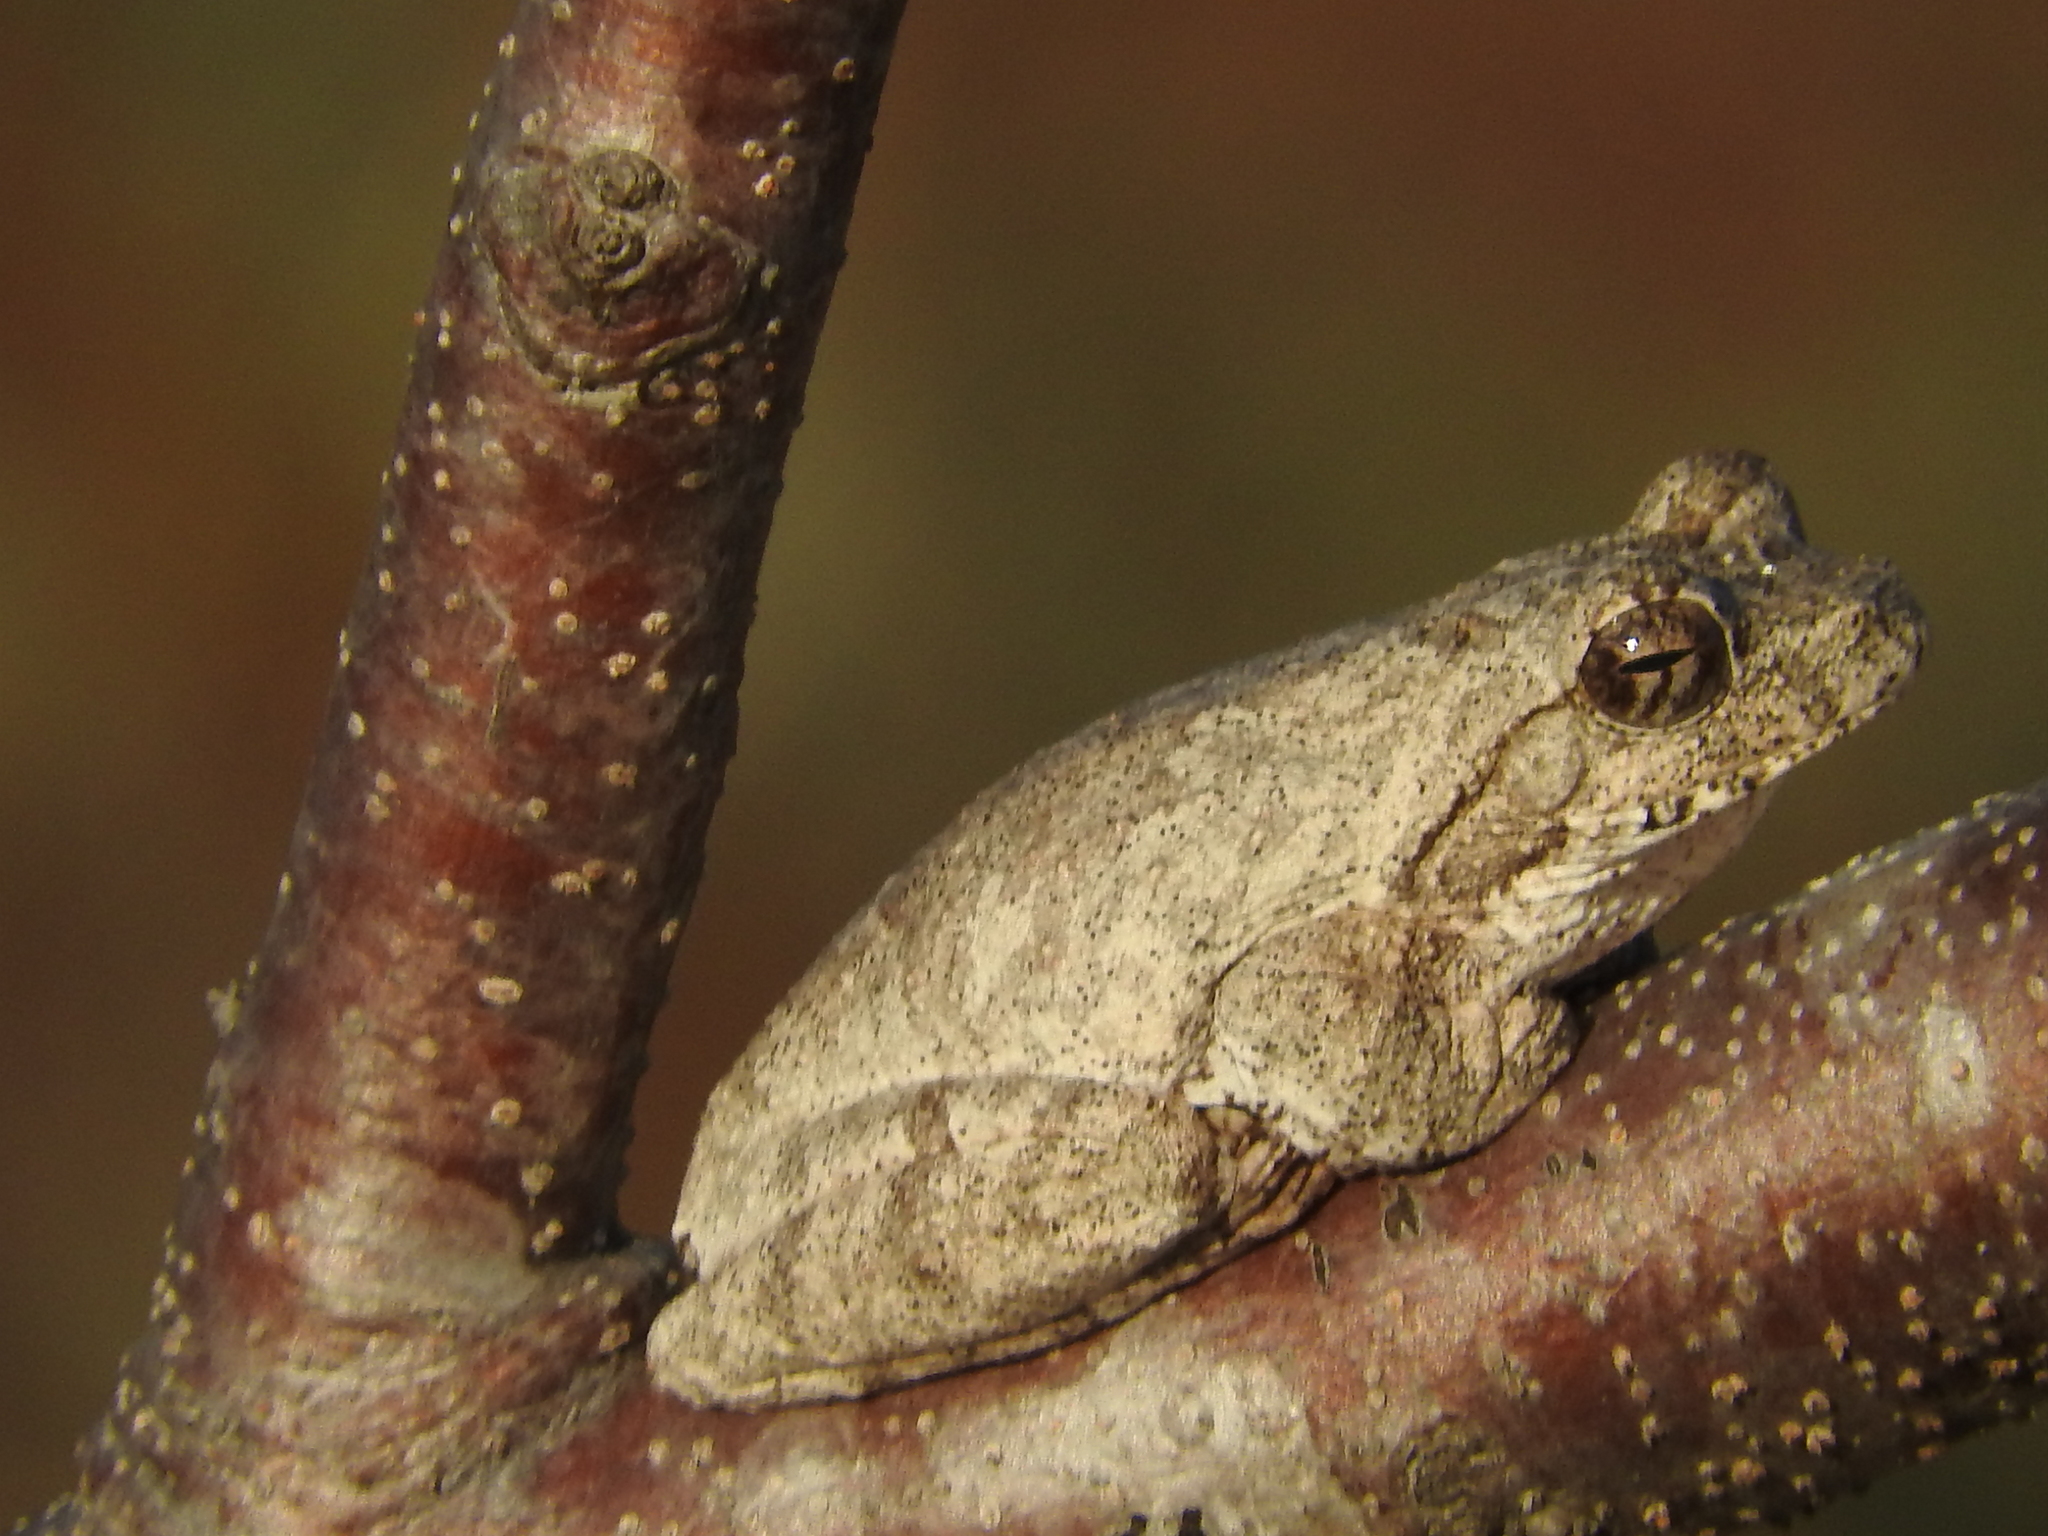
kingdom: Animalia
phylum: Chordata
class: Amphibia
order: Anura
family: Rhacophoridae
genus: Chiromantis
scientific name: Chiromantis xerampelina
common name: African gray treefrog
